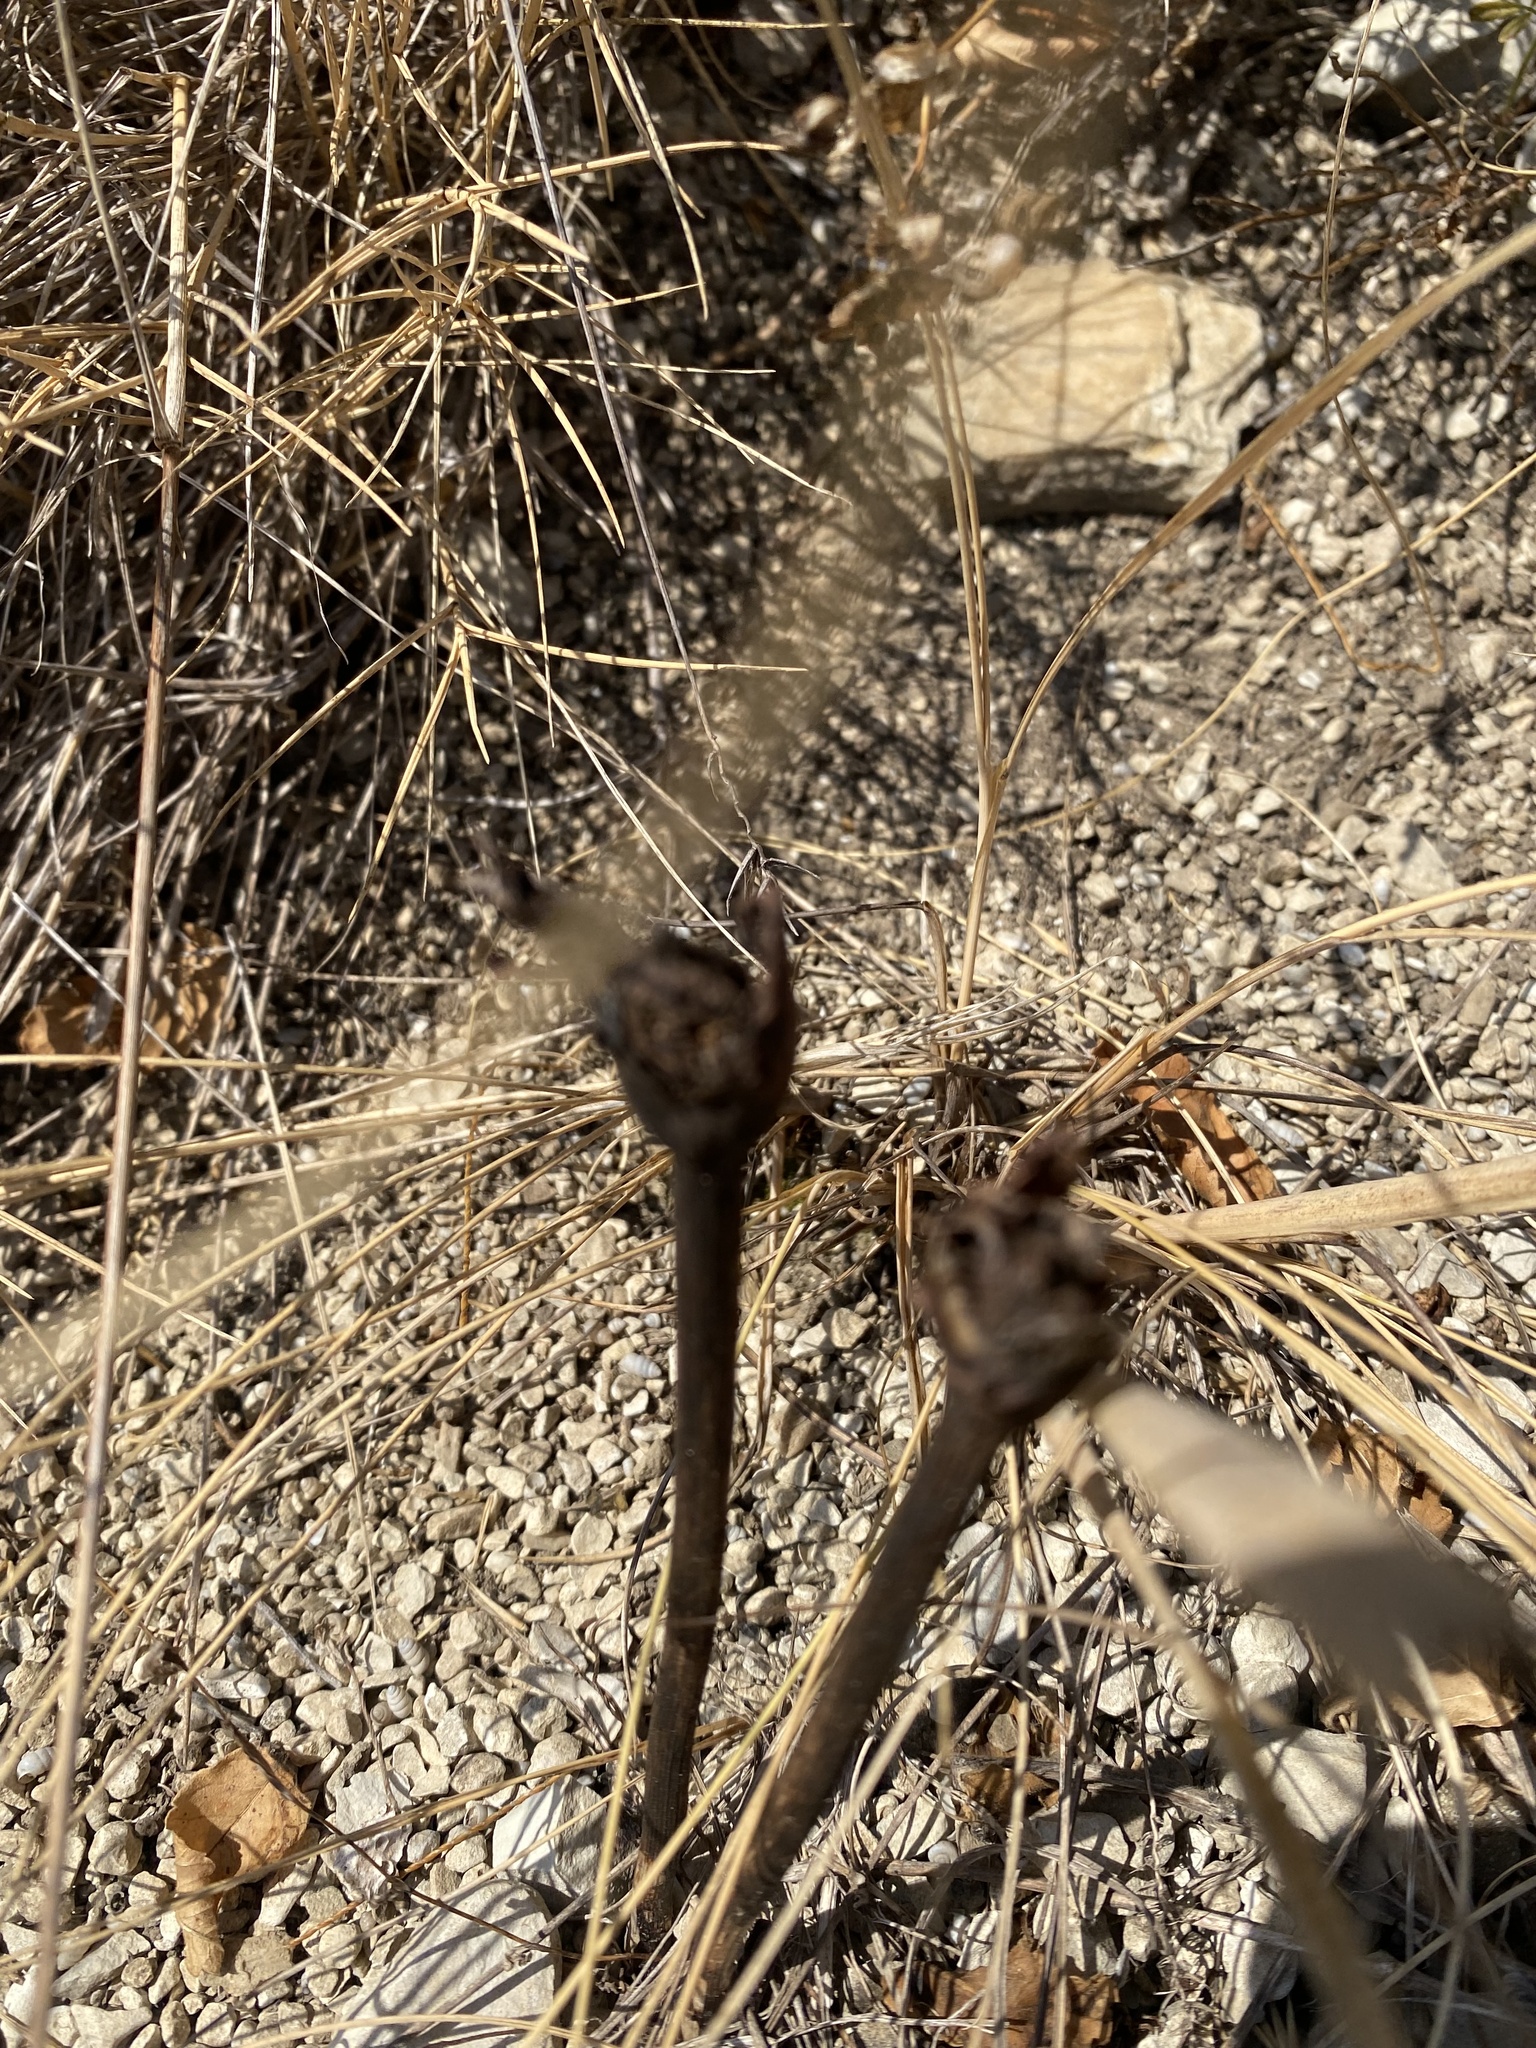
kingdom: Plantae
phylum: Tracheophyta
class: Magnoliopsida
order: Lamiales
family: Orobanchaceae
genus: Diphelypaea
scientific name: Diphelypaea coccinea
